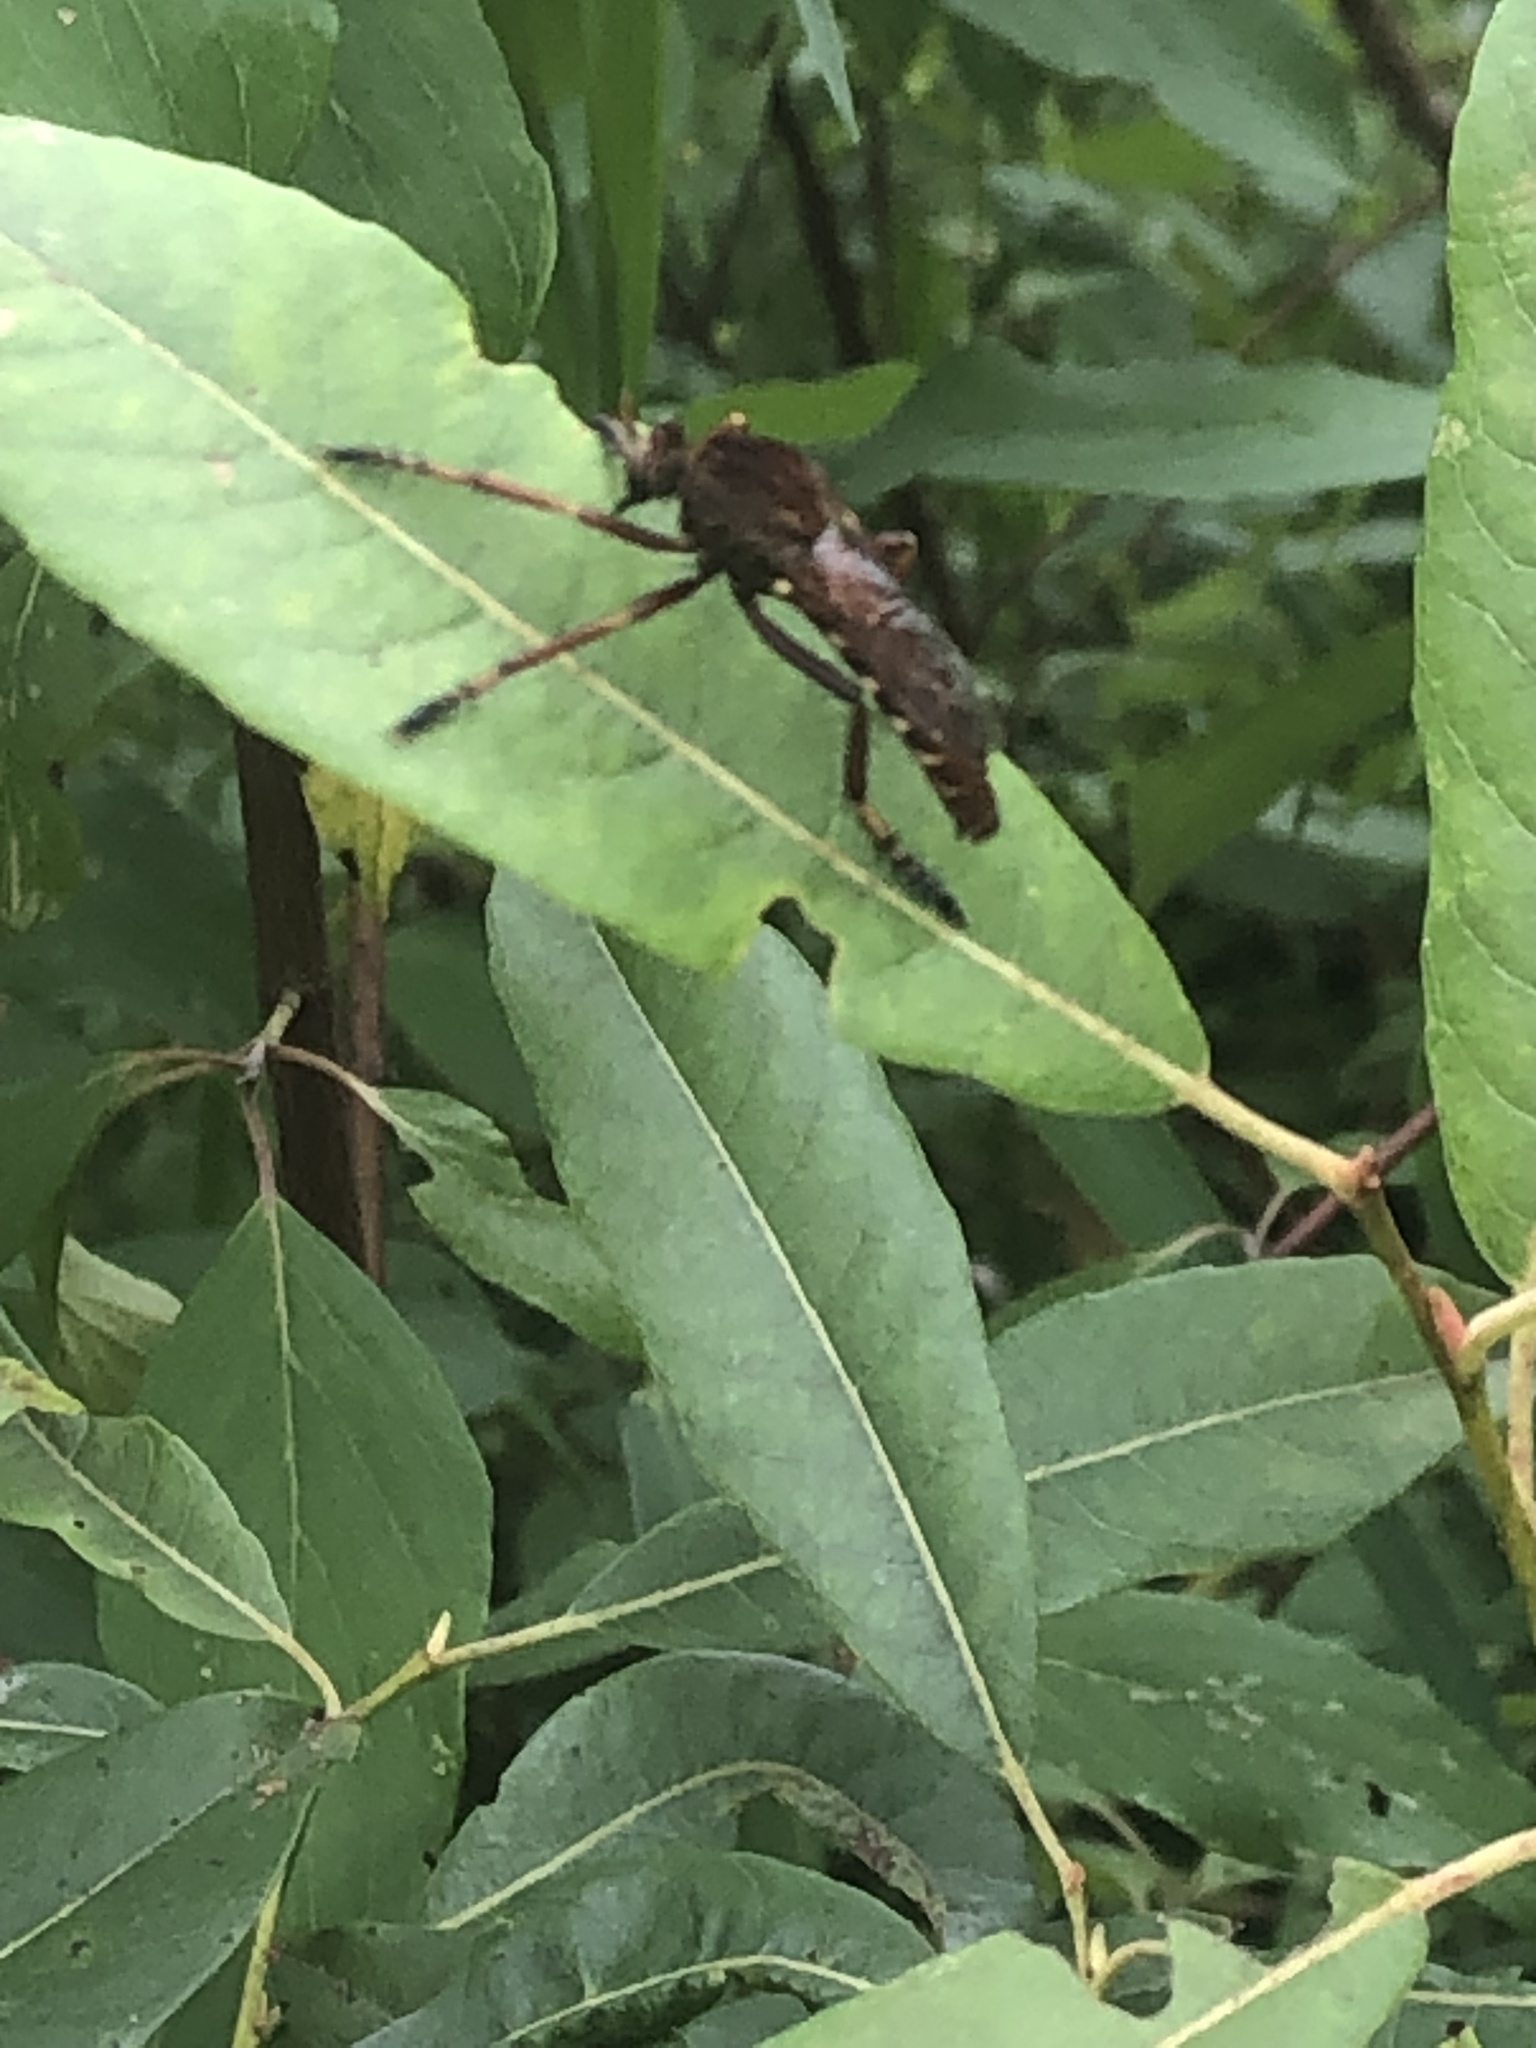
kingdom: Animalia
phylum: Arthropoda
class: Insecta
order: Diptera
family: Asilidae
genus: Diogmites
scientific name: Diogmites basalis
